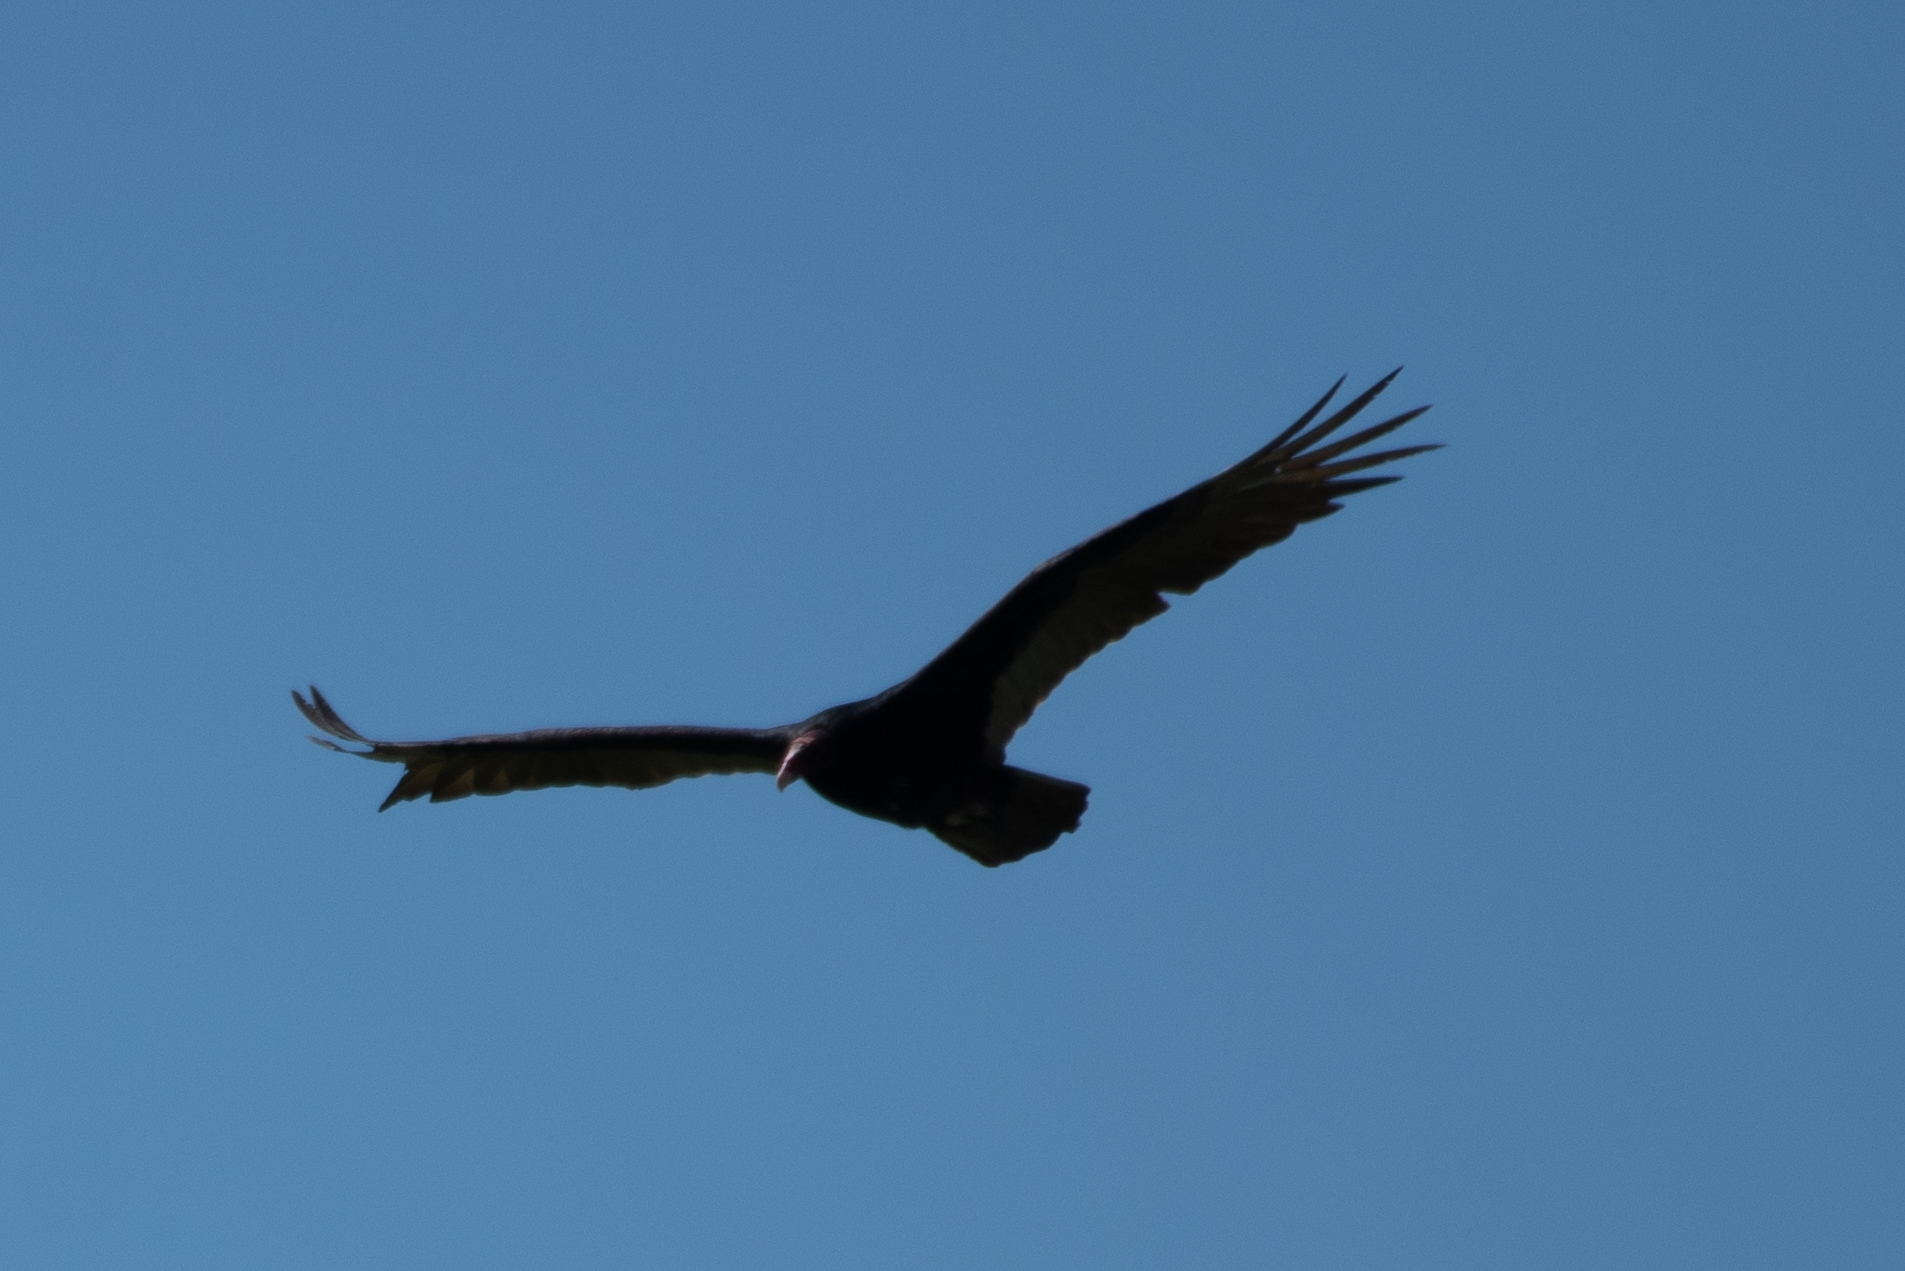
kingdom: Animalia
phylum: Chordata
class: Aves
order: Accipitriformes
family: Cathartidae
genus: Cathartes
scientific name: Cathartes aura
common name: Turkey vulture
